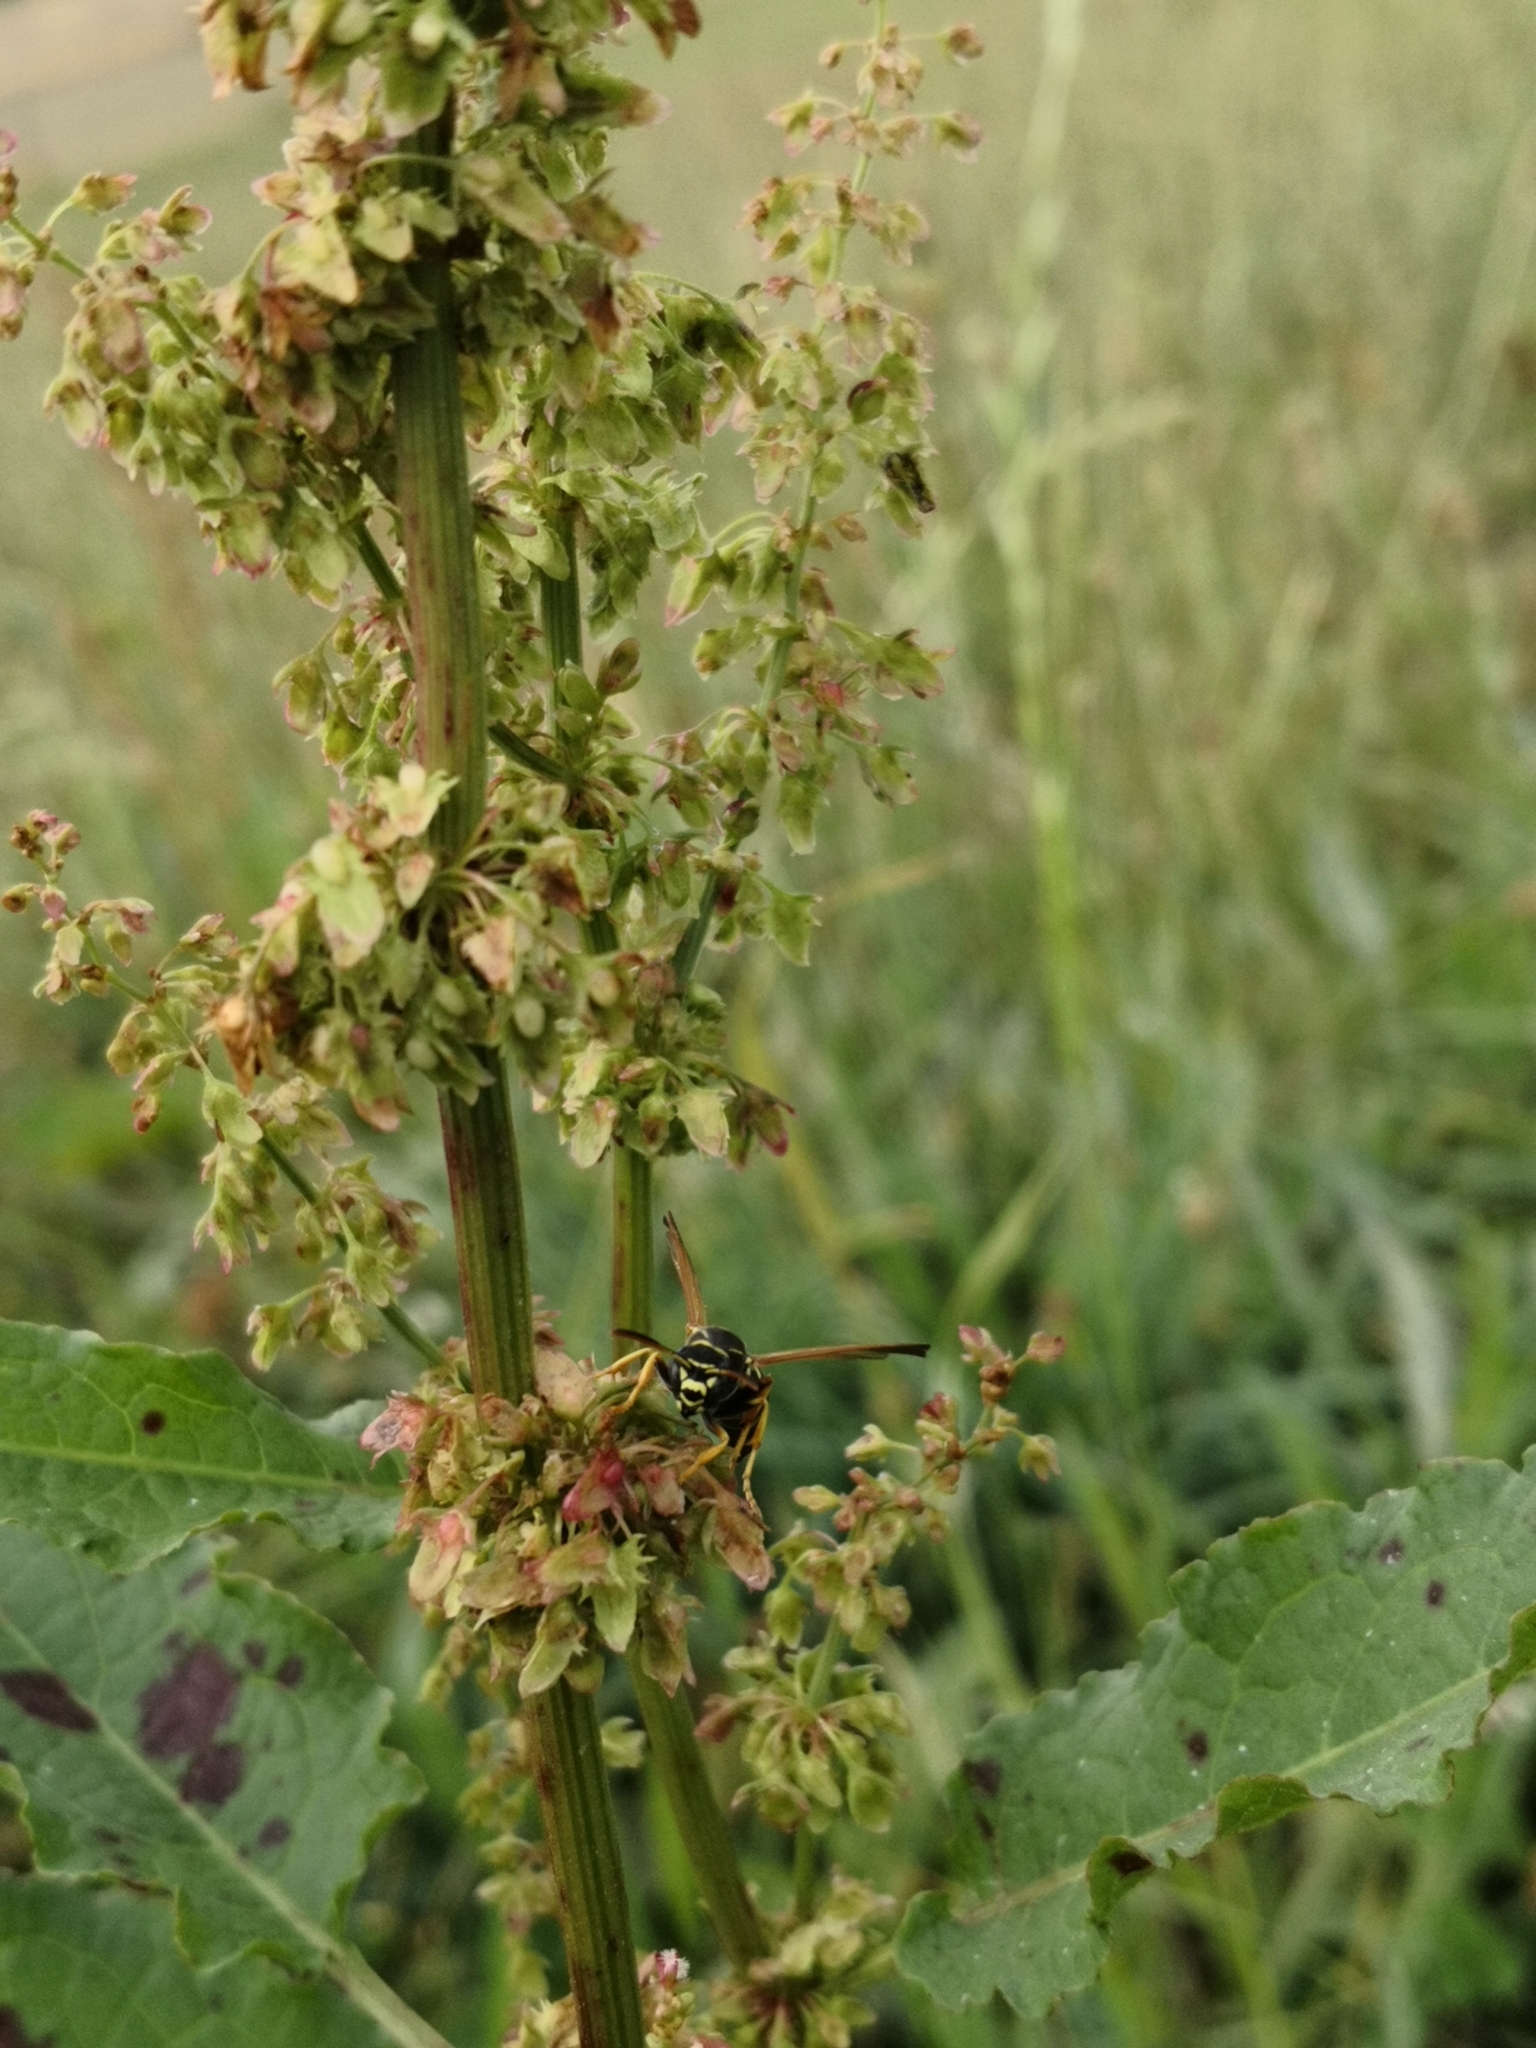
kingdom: Animalia
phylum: Arthropoda
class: Insecta
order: Hymenoptera
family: Eumenidae
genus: Polistes
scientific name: Polistes gallicus
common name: Paper wasp
